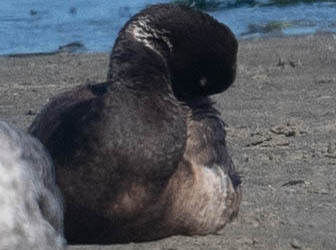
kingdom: Animalia
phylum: Chordata
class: Aves
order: Anseriformes
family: Anatidae
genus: Branta
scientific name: Branta bernicla
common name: Brant goose
